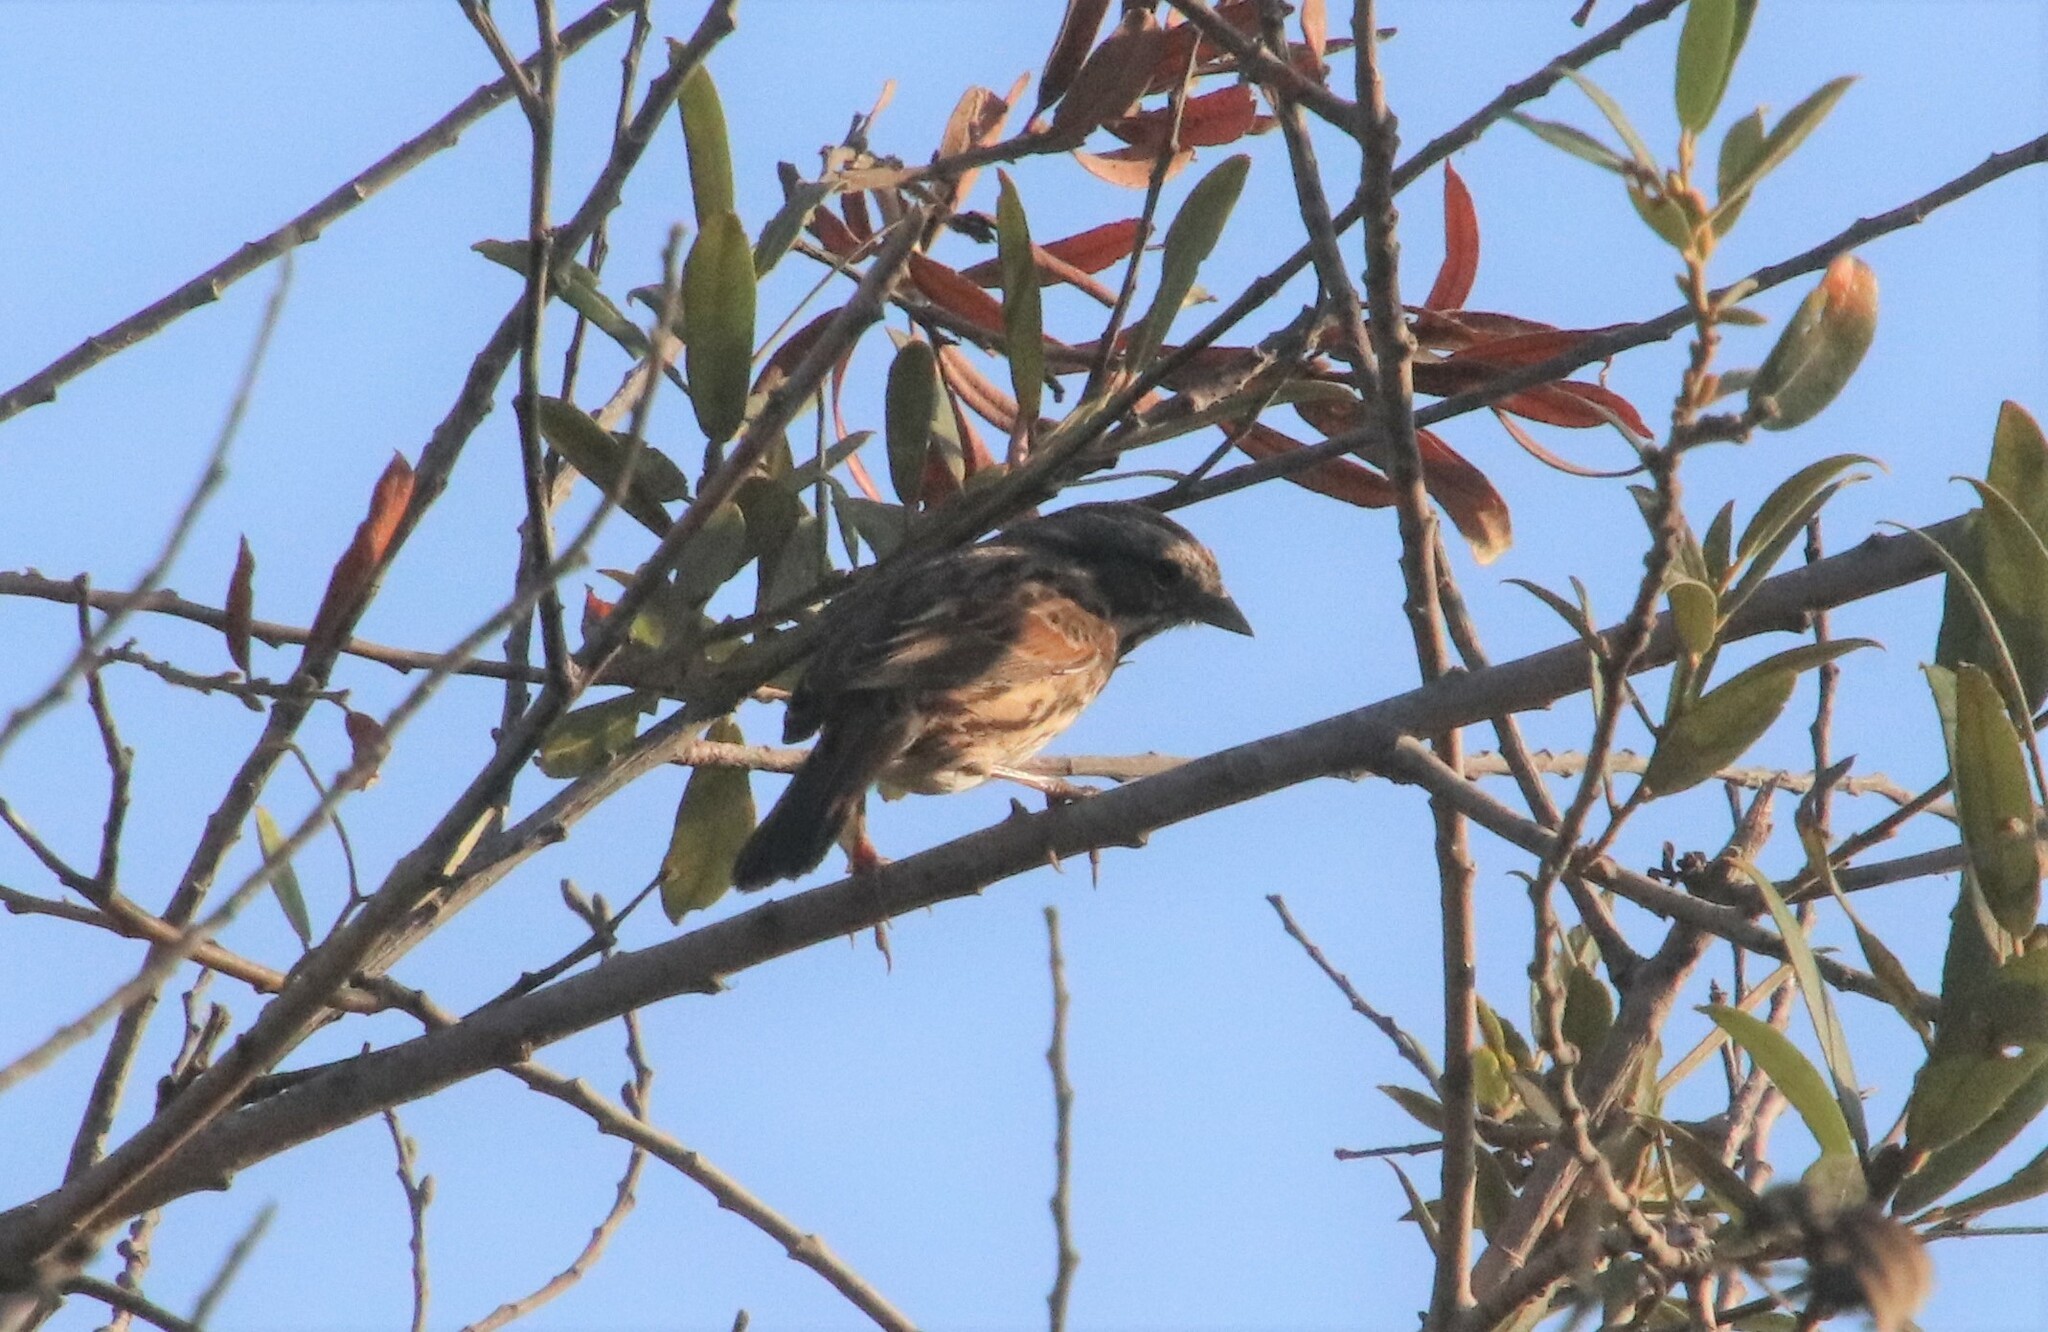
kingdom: Animalia
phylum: Chordata
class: Aves
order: Passeriformes
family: Passerellidae
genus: Melospiza
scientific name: Melospiza melodia
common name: Song sparrow
